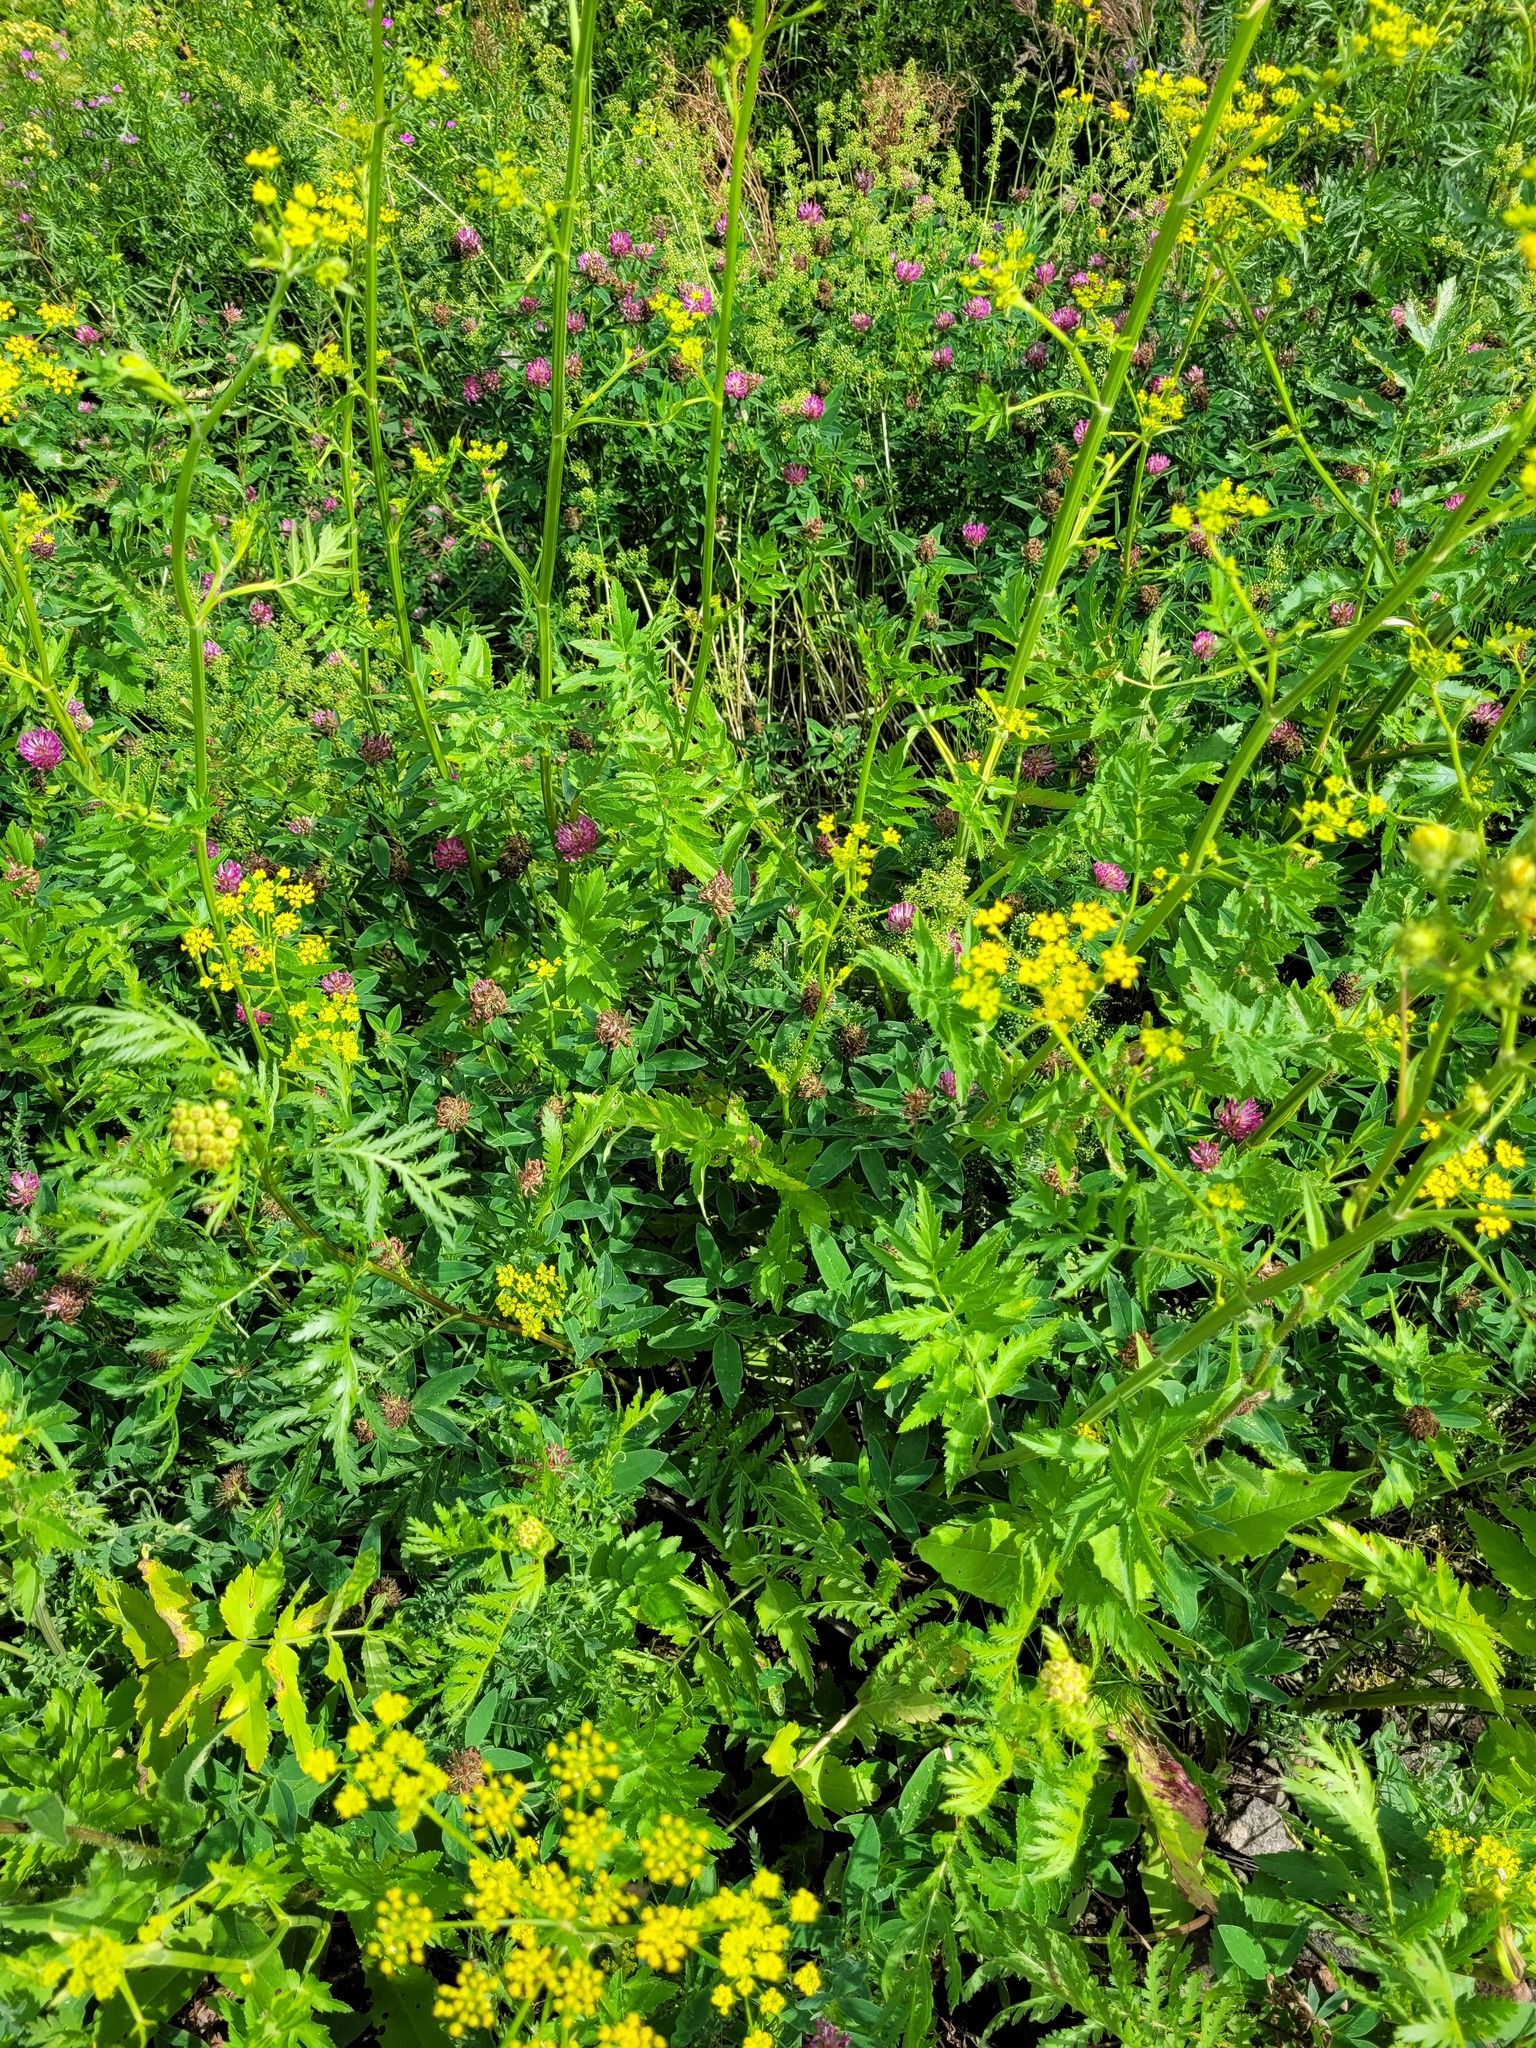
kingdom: Plantae
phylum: Tracheophyta
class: Magnoliopsida
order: Fabales
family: Fabaceae
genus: Trifolium
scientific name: Trifolium medium
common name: Zigzag clover
